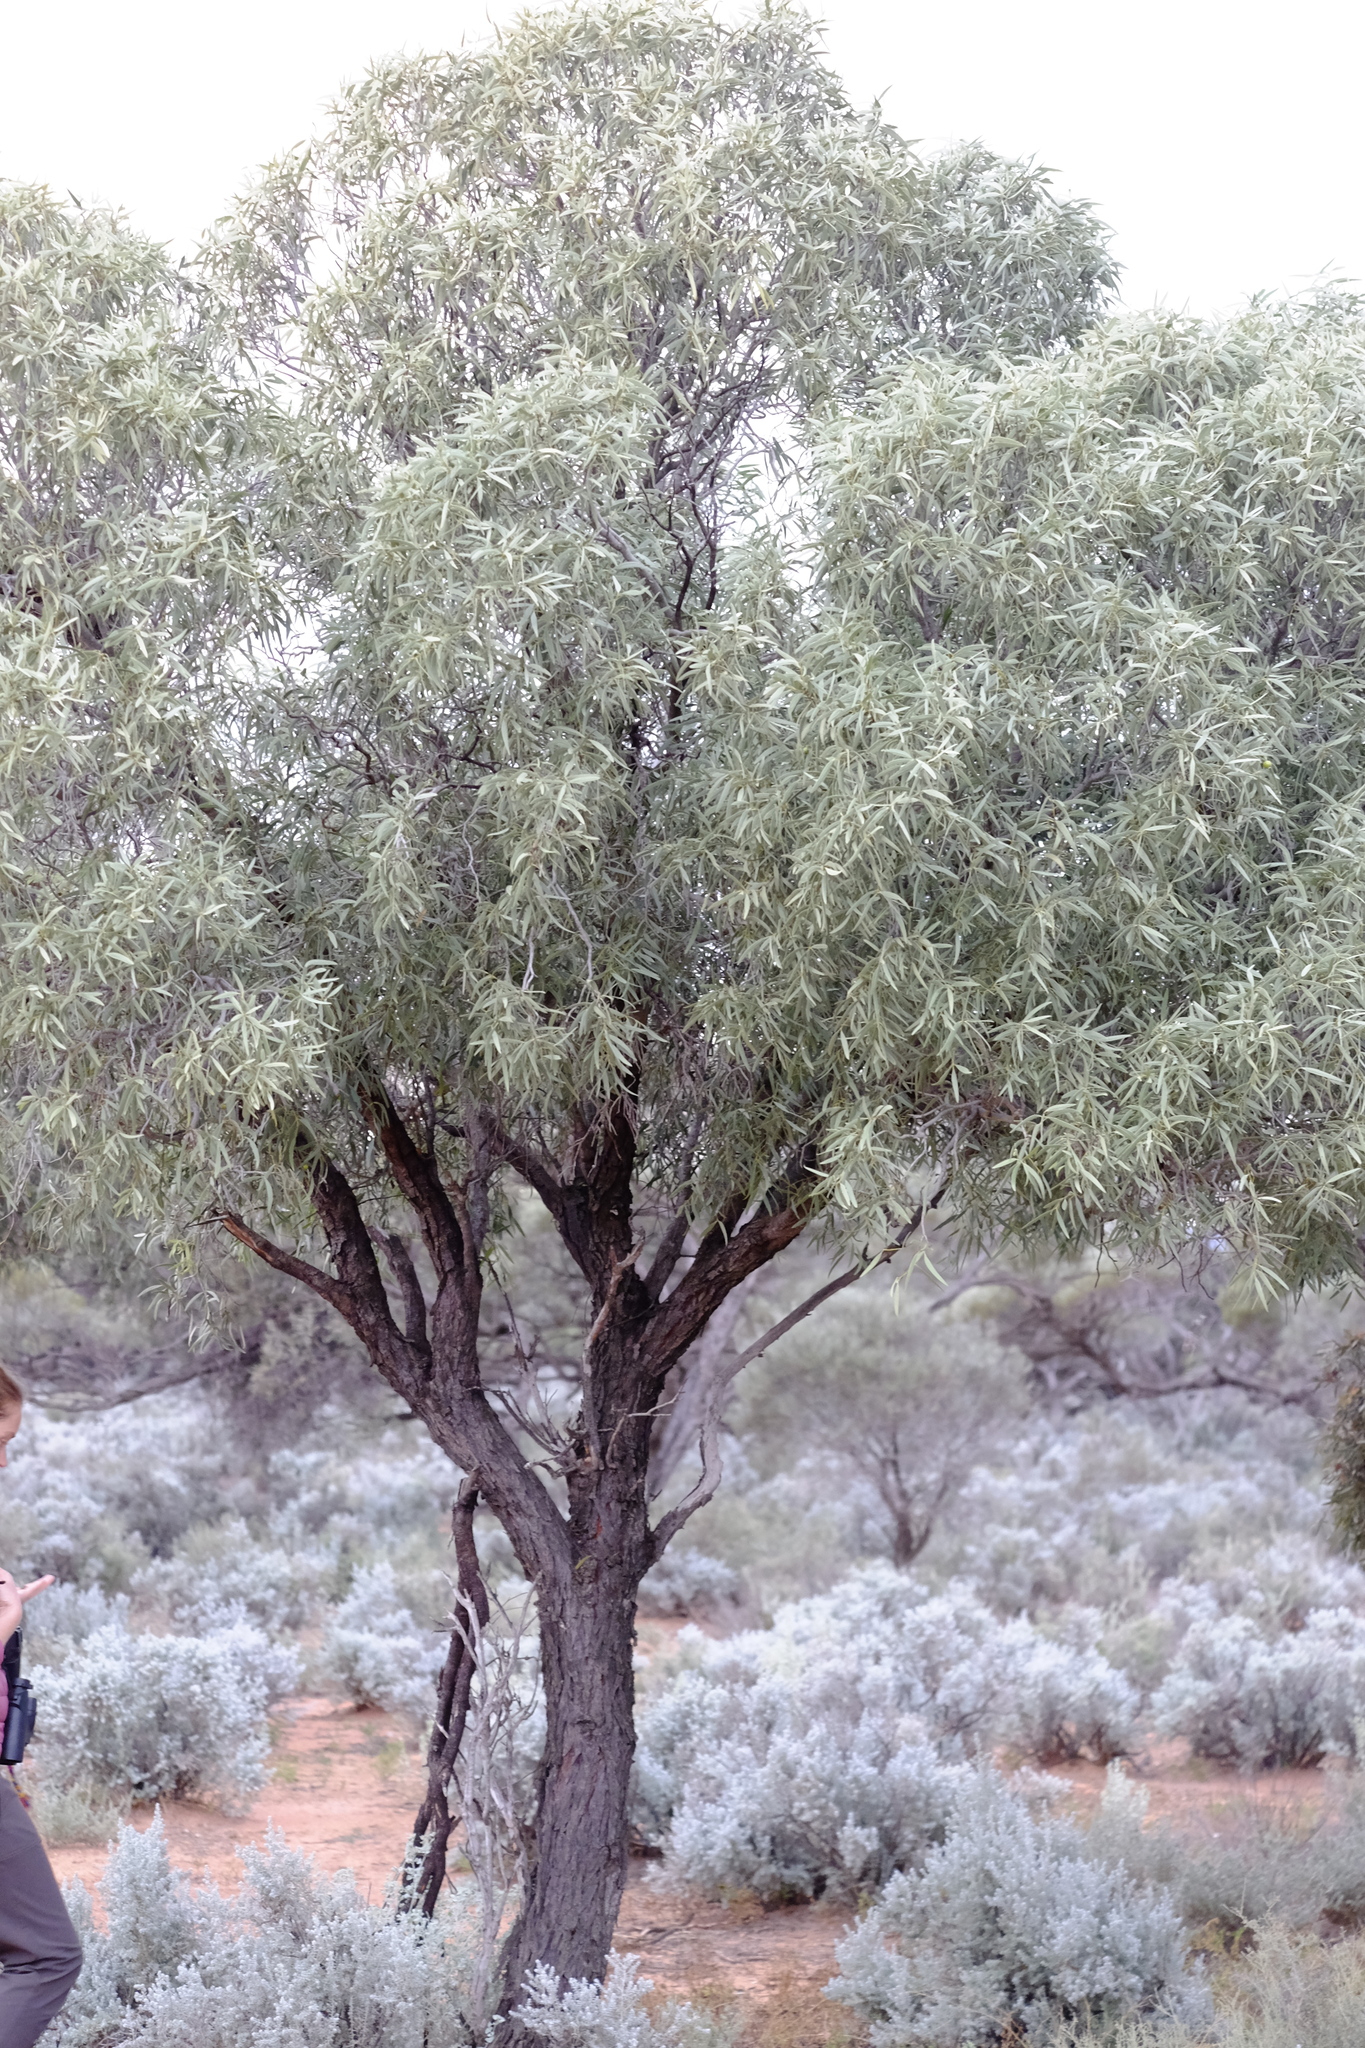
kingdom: Plantae
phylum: Tracheophyta
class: Magnoliopsida
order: Santalales
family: Santalaceae
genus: Santalum
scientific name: Santalum acuminatum
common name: Sweet quandong
